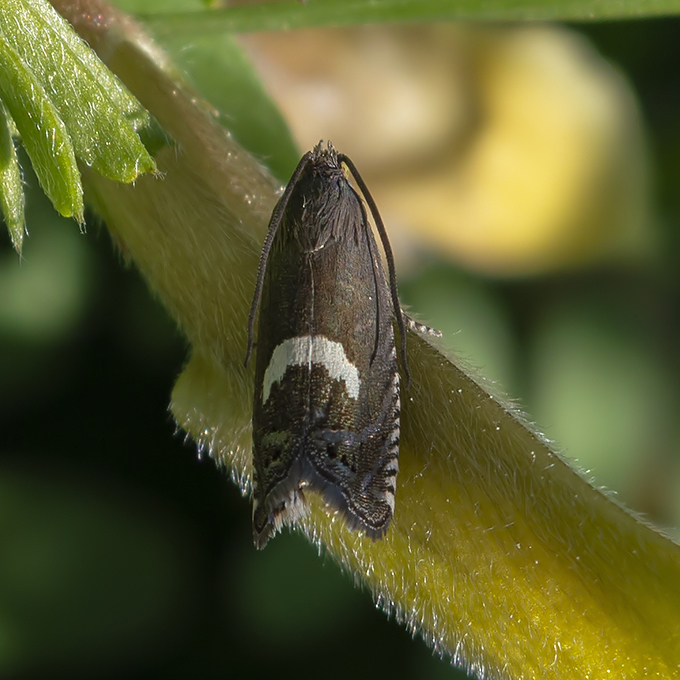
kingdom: Animalia
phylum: Arthropoda
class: Insecta
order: Lepidoptera
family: Tortricidae
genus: Dichrorampha
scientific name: Dichrorampha petiverella
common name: Common drill
